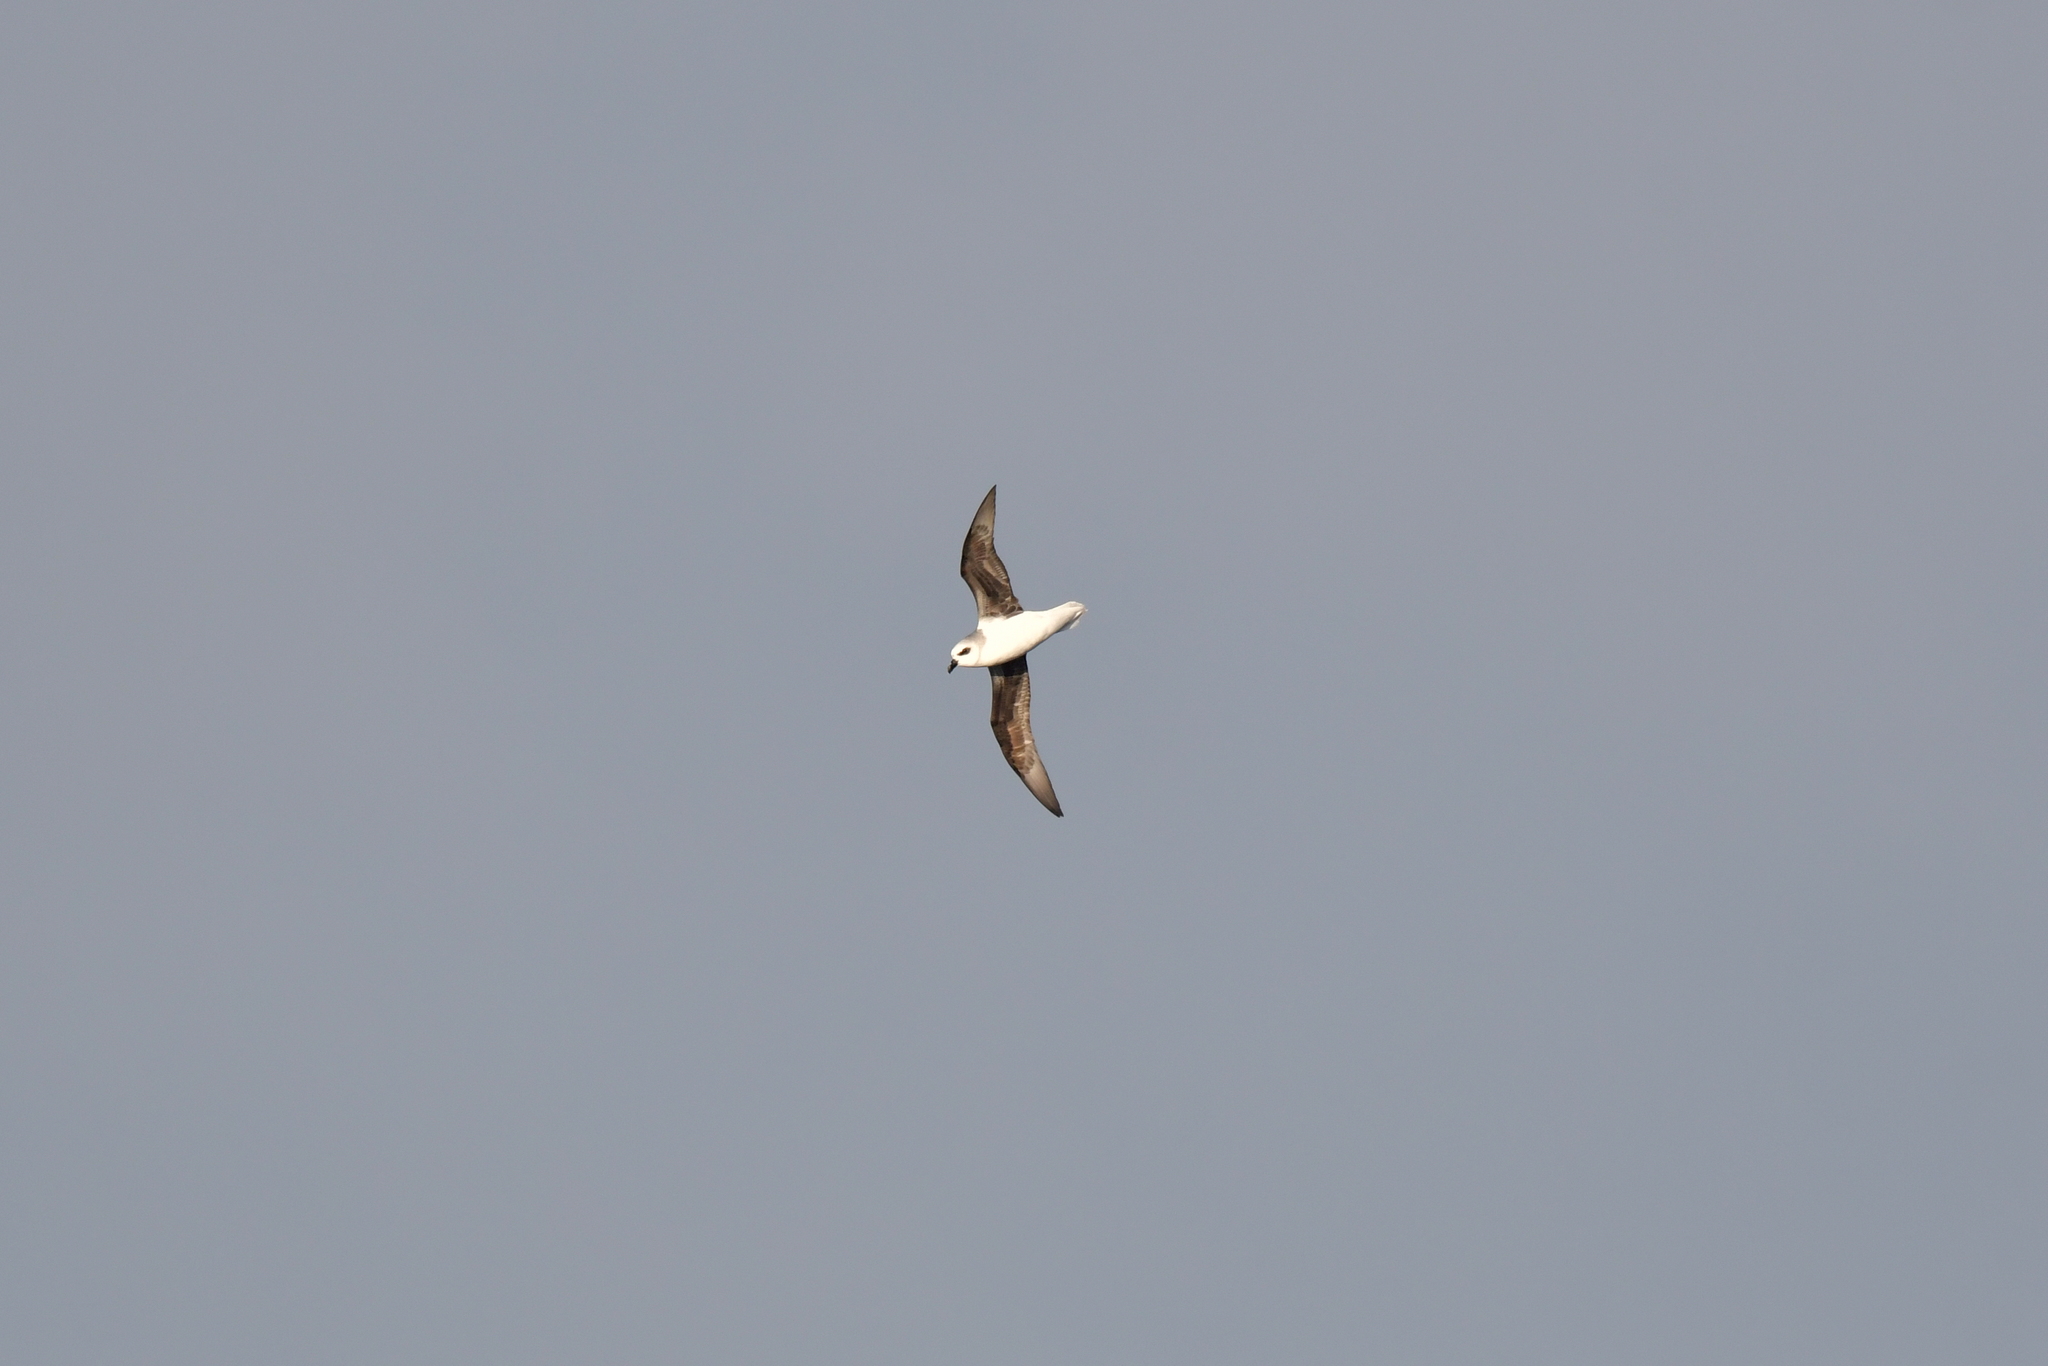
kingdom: Animalia
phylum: Chordata
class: Aves
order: Procellariiformes
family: Procellariidae
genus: Pterodroma
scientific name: Pterodroma lessonii
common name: White-headed petrel
